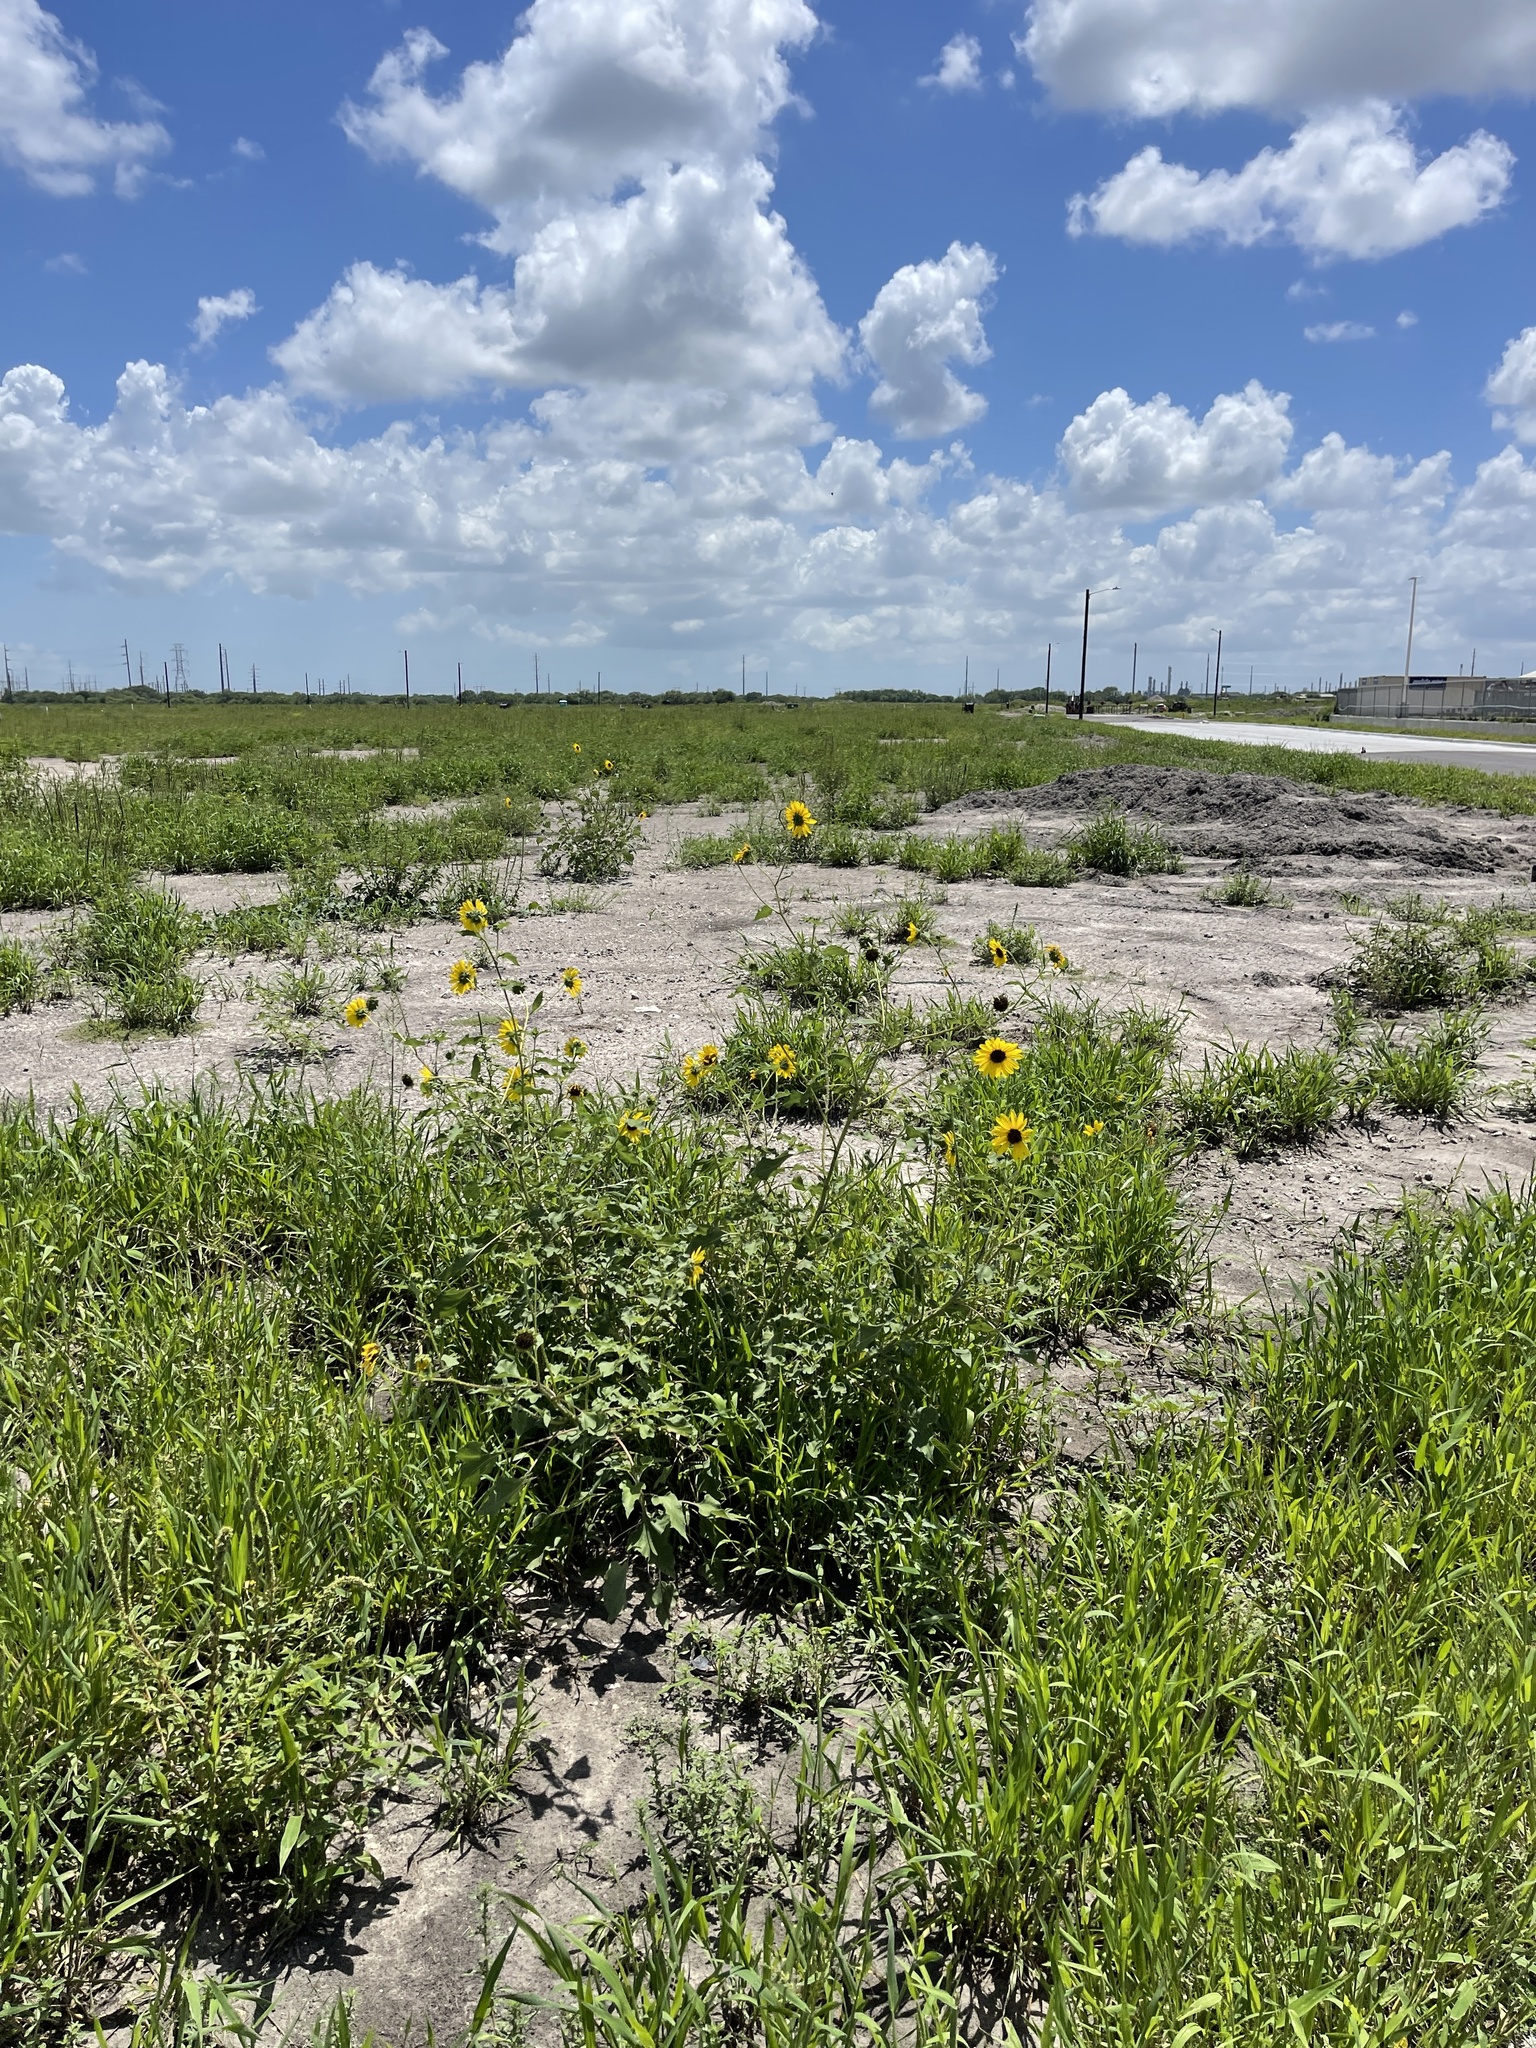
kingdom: Plantae
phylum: Tracheophyta
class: Magnoliopsida
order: Asterales
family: Asteraceae
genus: Helianthus
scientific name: Helianthus annuus
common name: Sunflower
